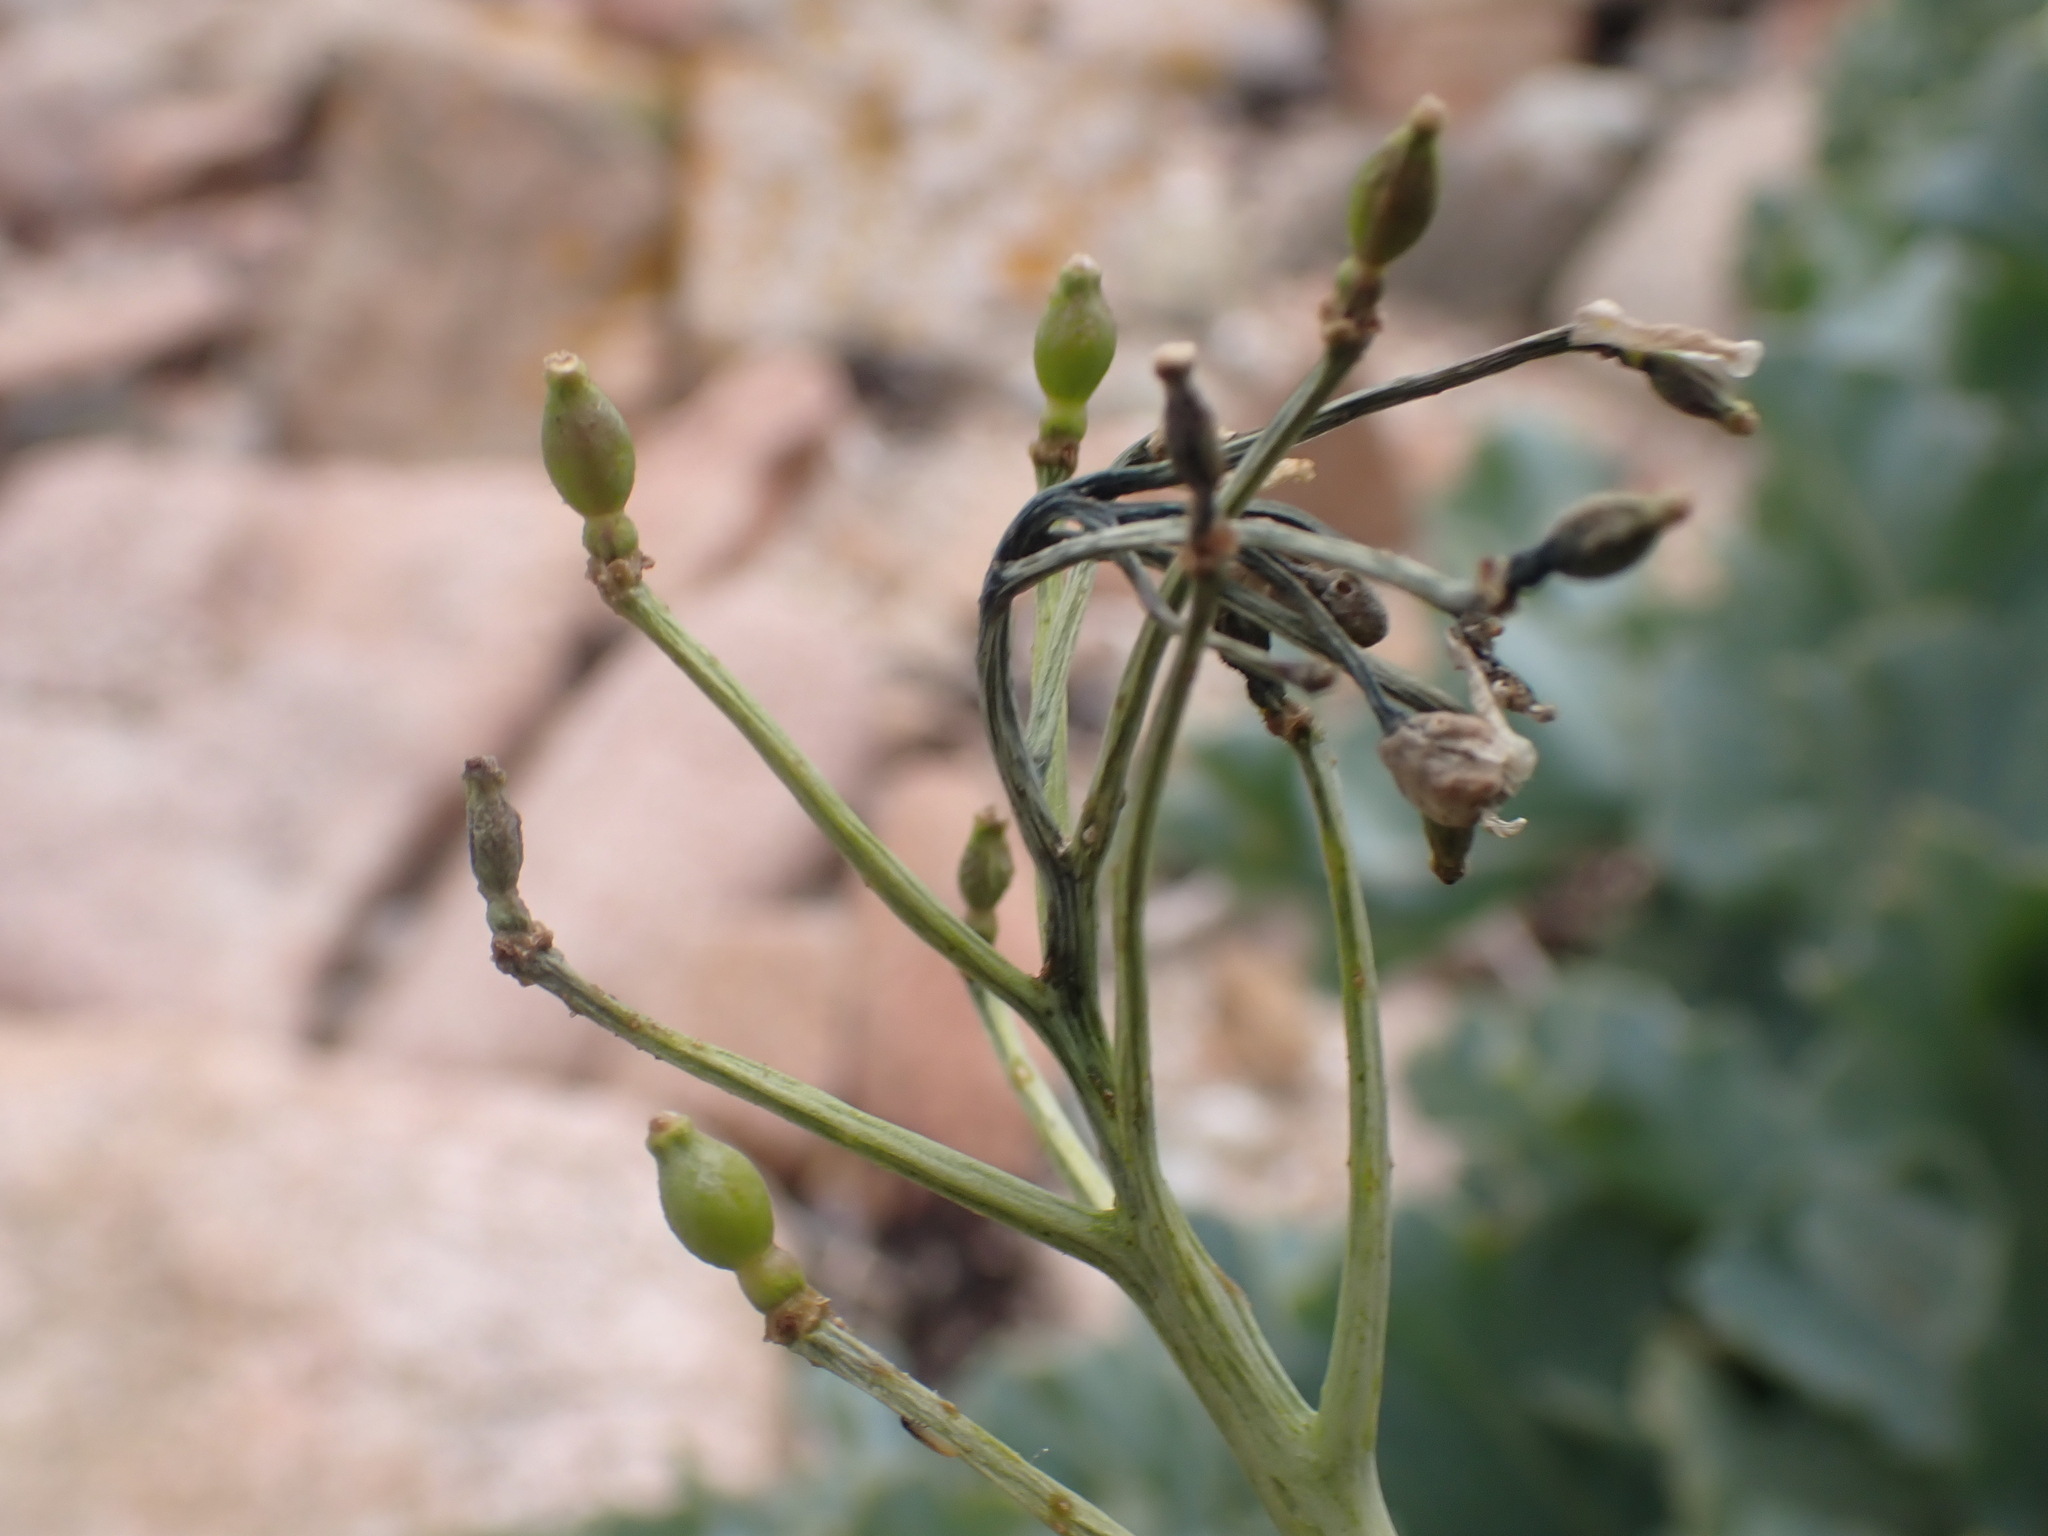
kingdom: Plantae
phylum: Tracheophyta
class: Magnoliopsida
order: Brassicales
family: Brassicaceae
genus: Crambe
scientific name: Crambe maritima
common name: Sea-kale
